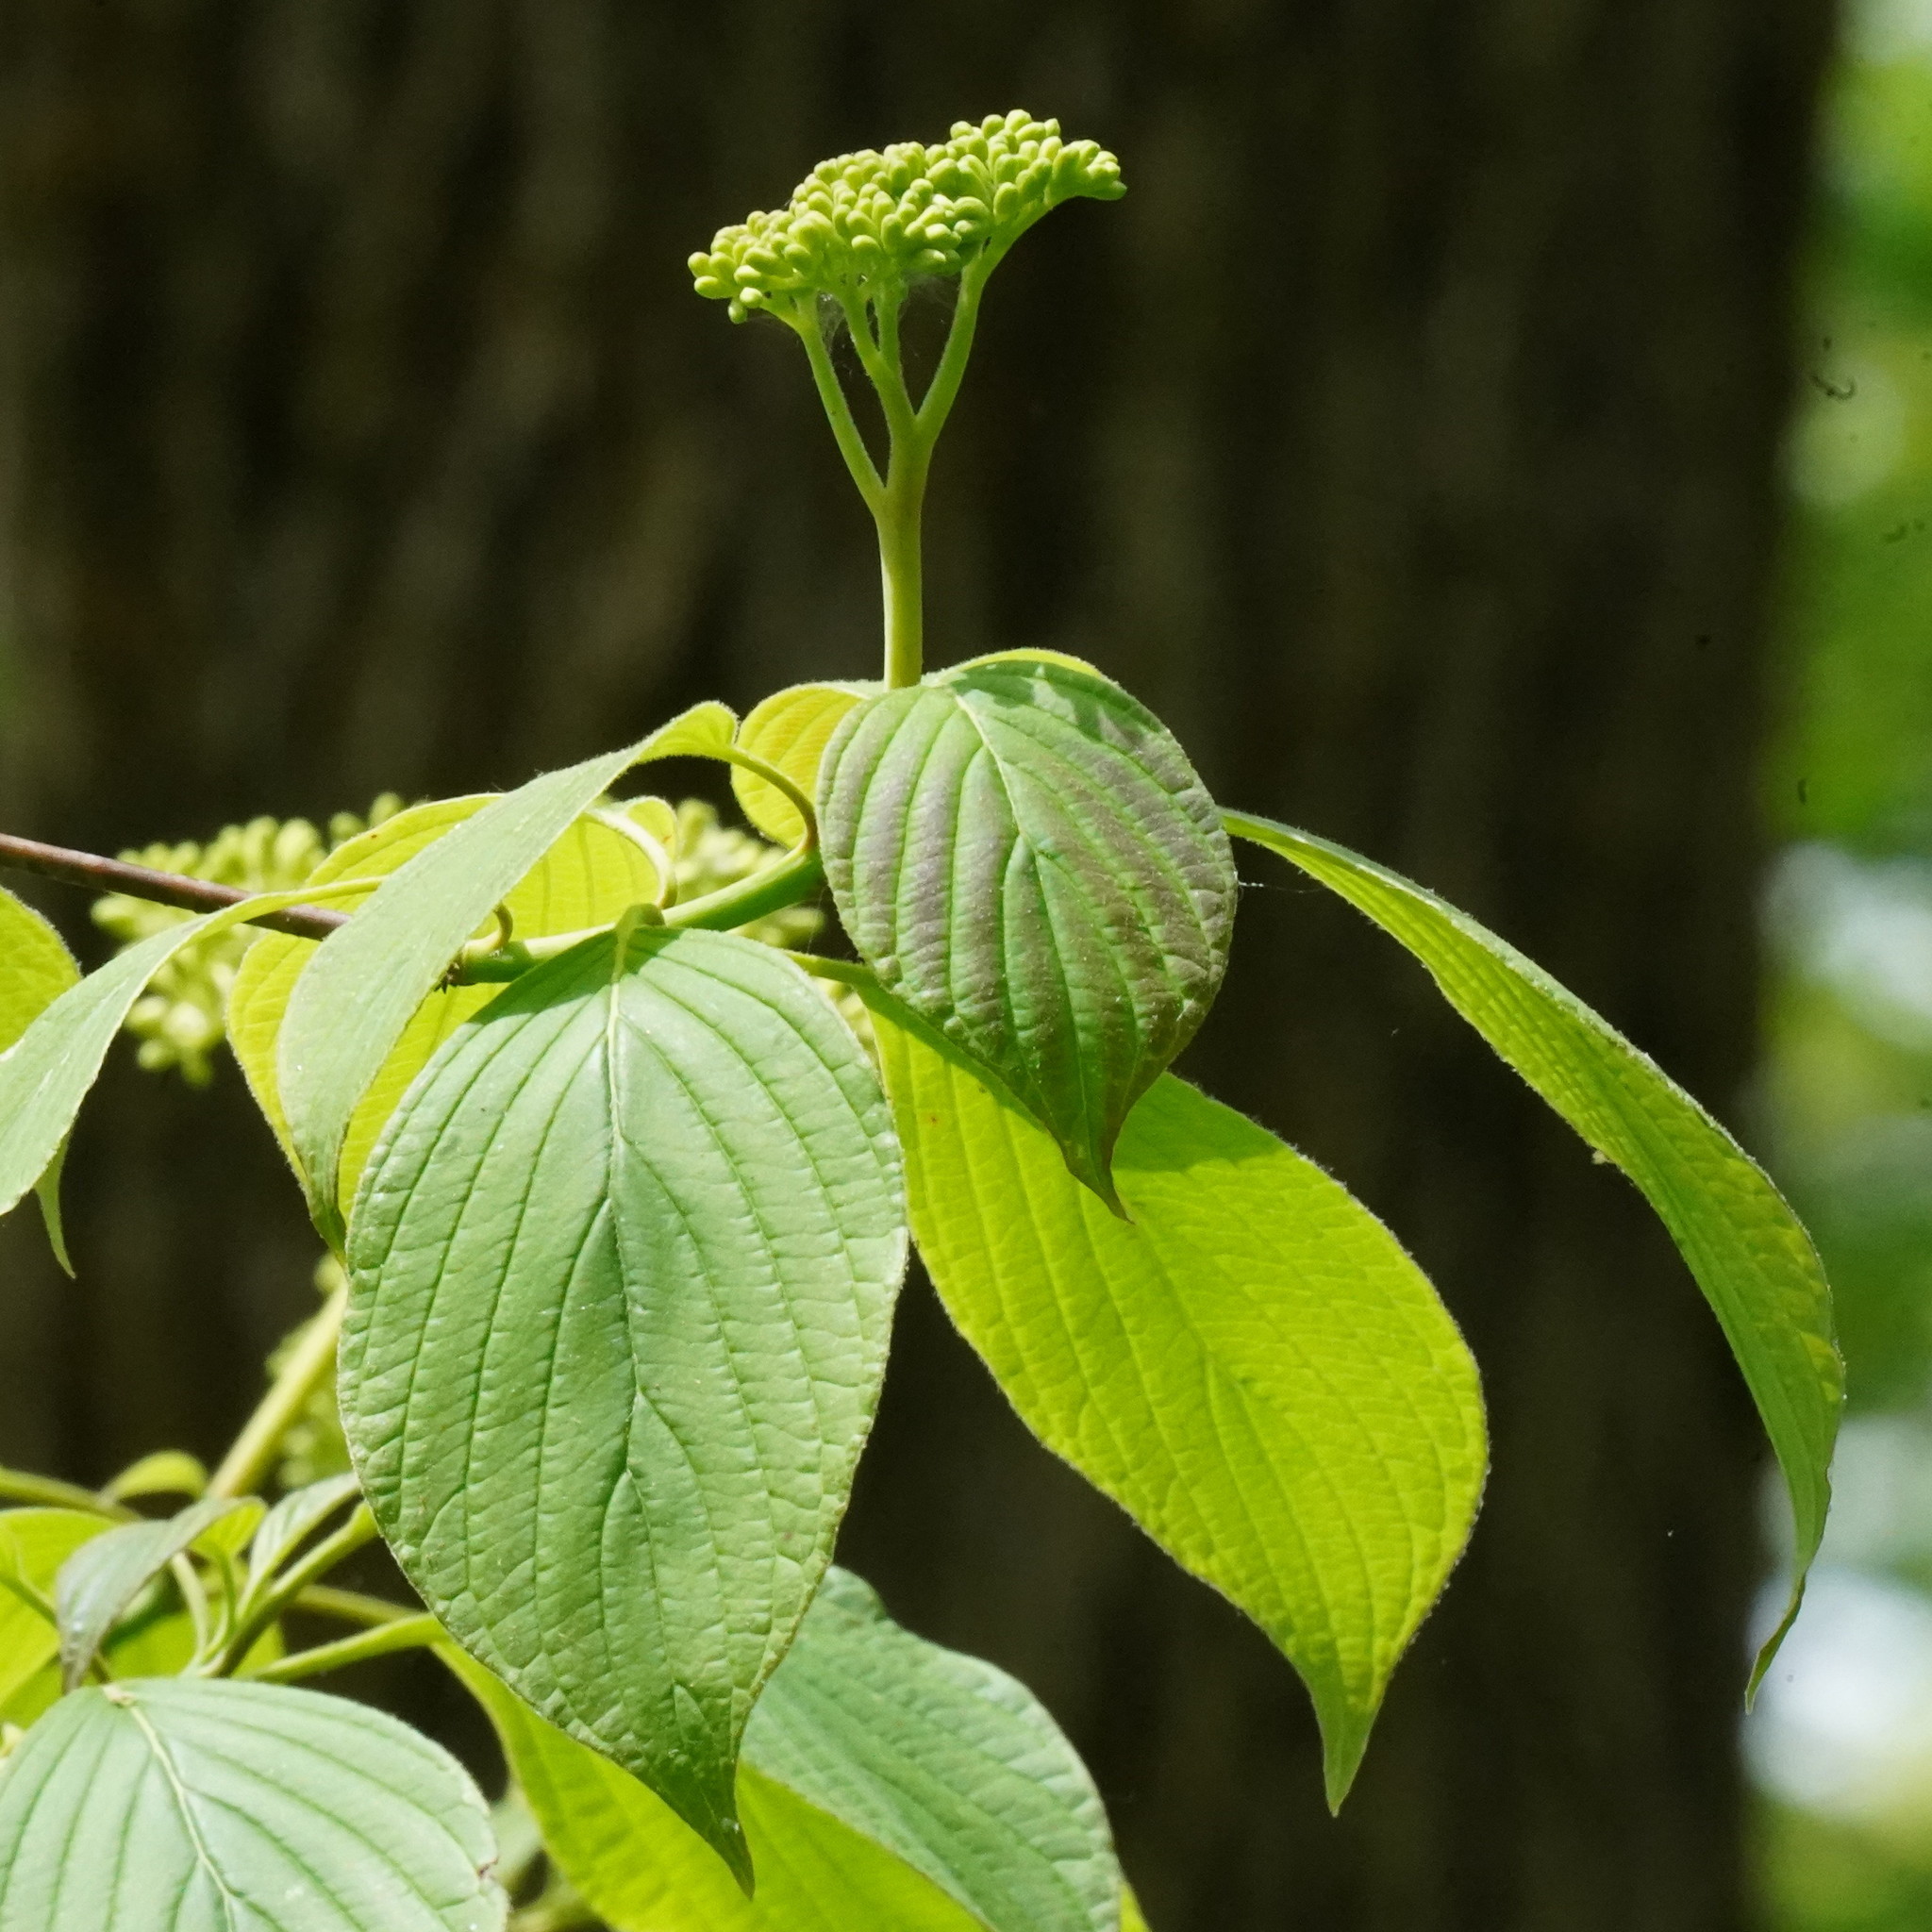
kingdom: Plantae
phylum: Tracheophyta
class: Magnoliopsida
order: Cornales
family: Cornaceae
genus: Cornus
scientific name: Cornus alternifolia
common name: Pagoda dogwood
